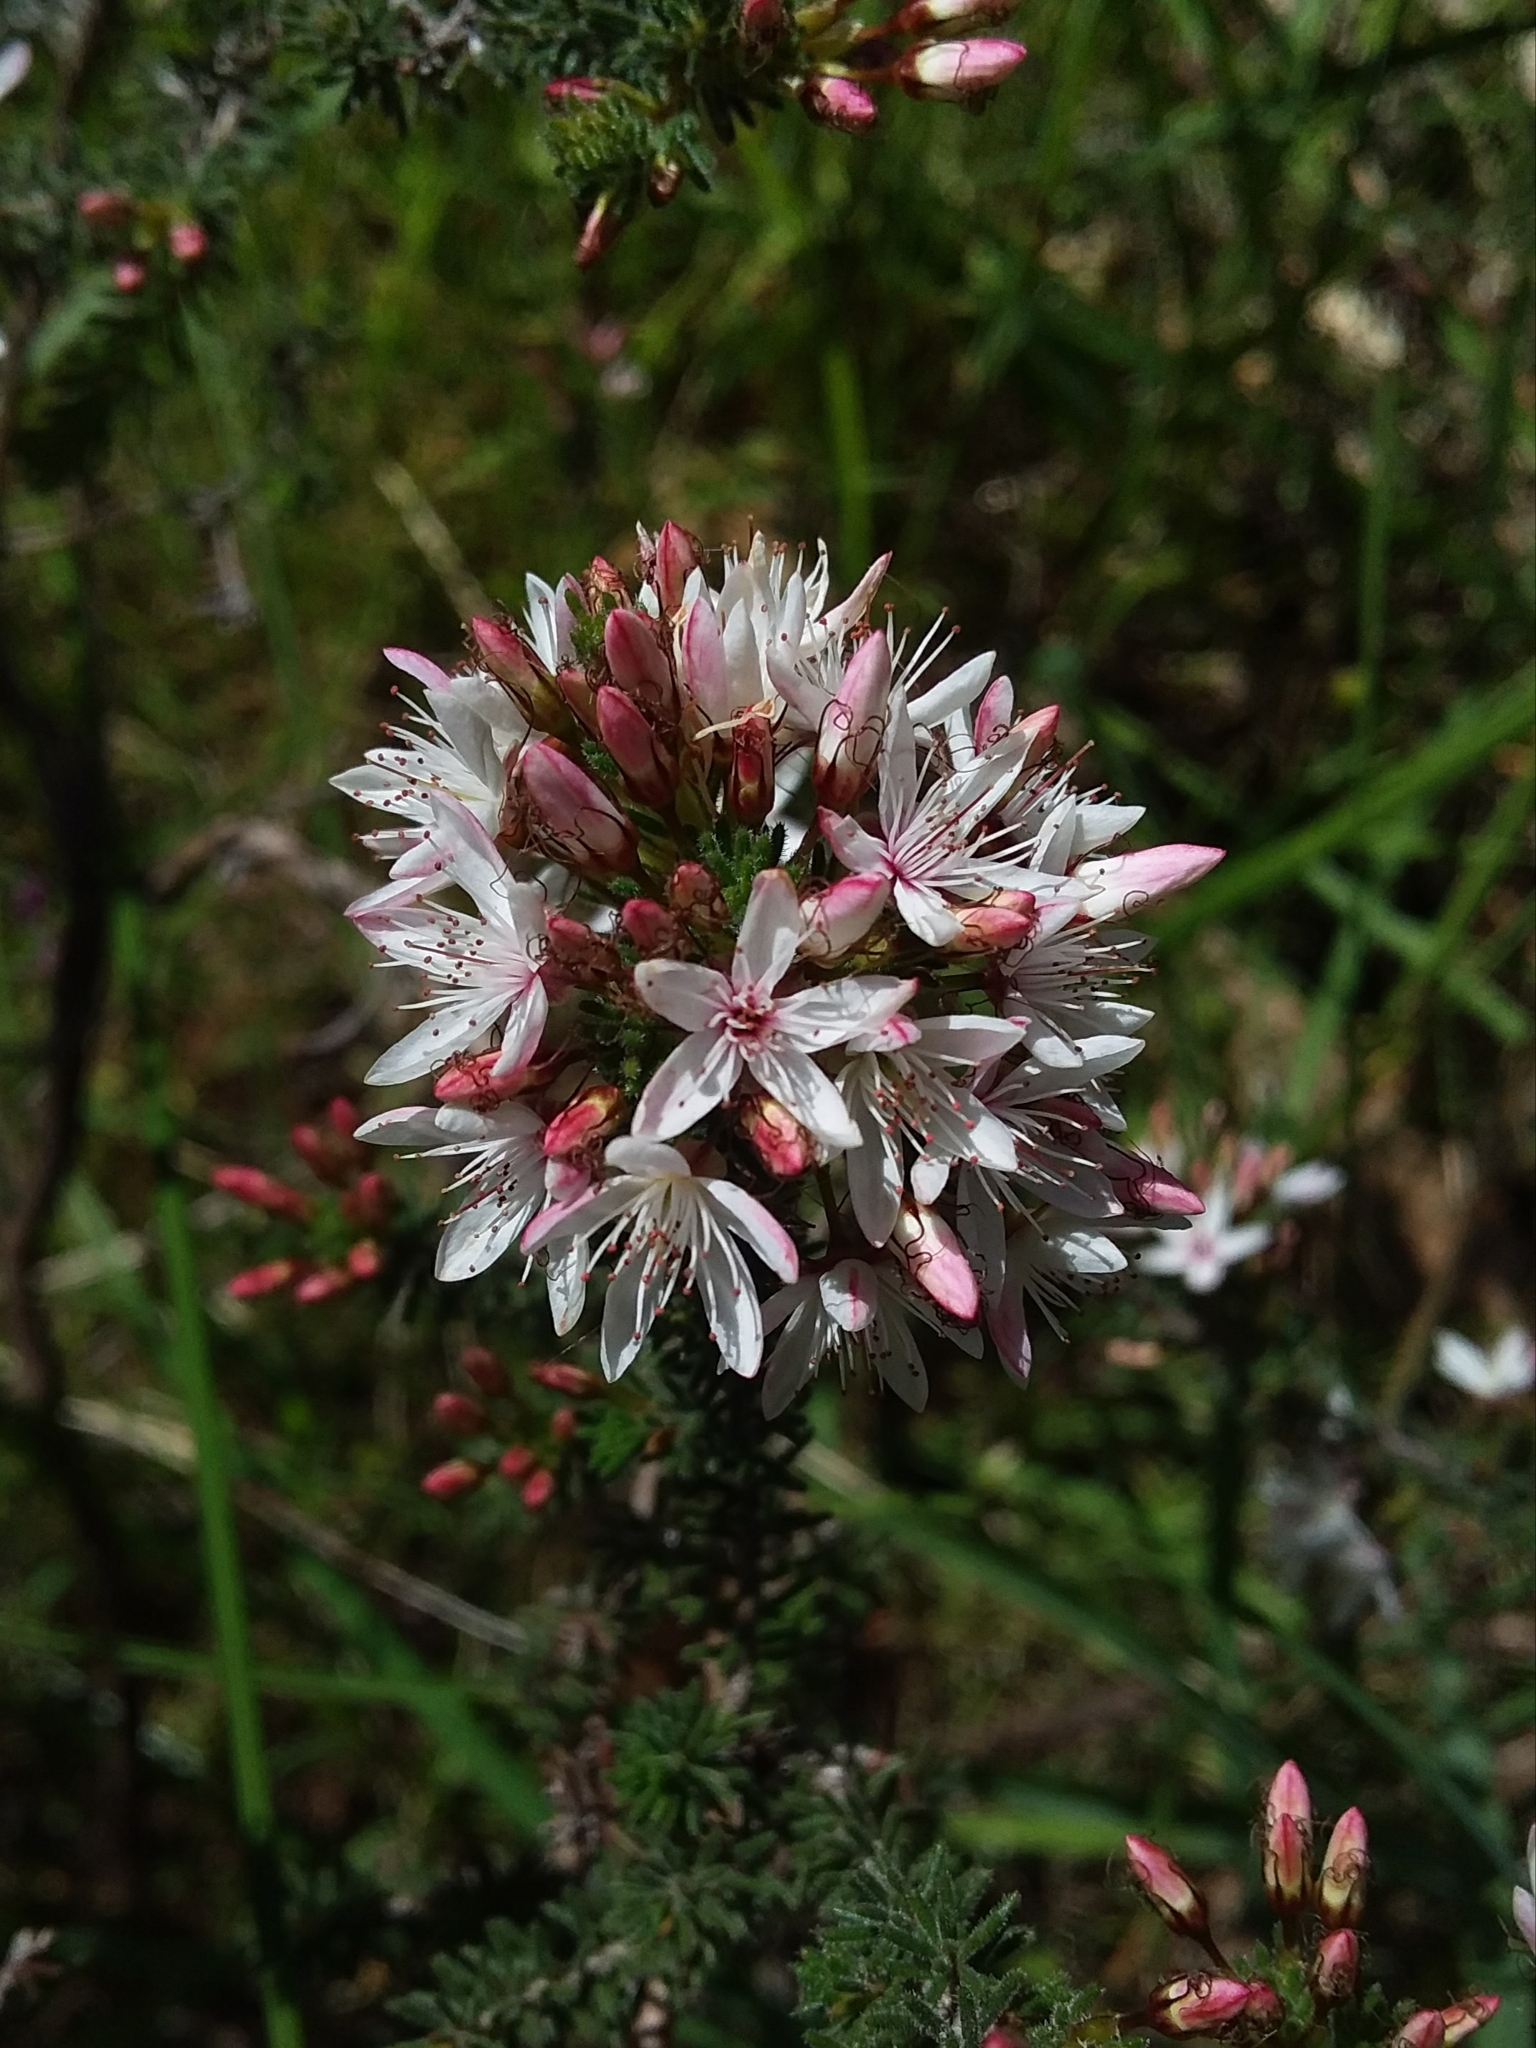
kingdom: Plantae
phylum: Tracheophyta
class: Magnoliopsida
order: Myrtales
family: Myrtaceae
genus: Calytrix
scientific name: Calytrix tetragona
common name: Common fringe myrtle
